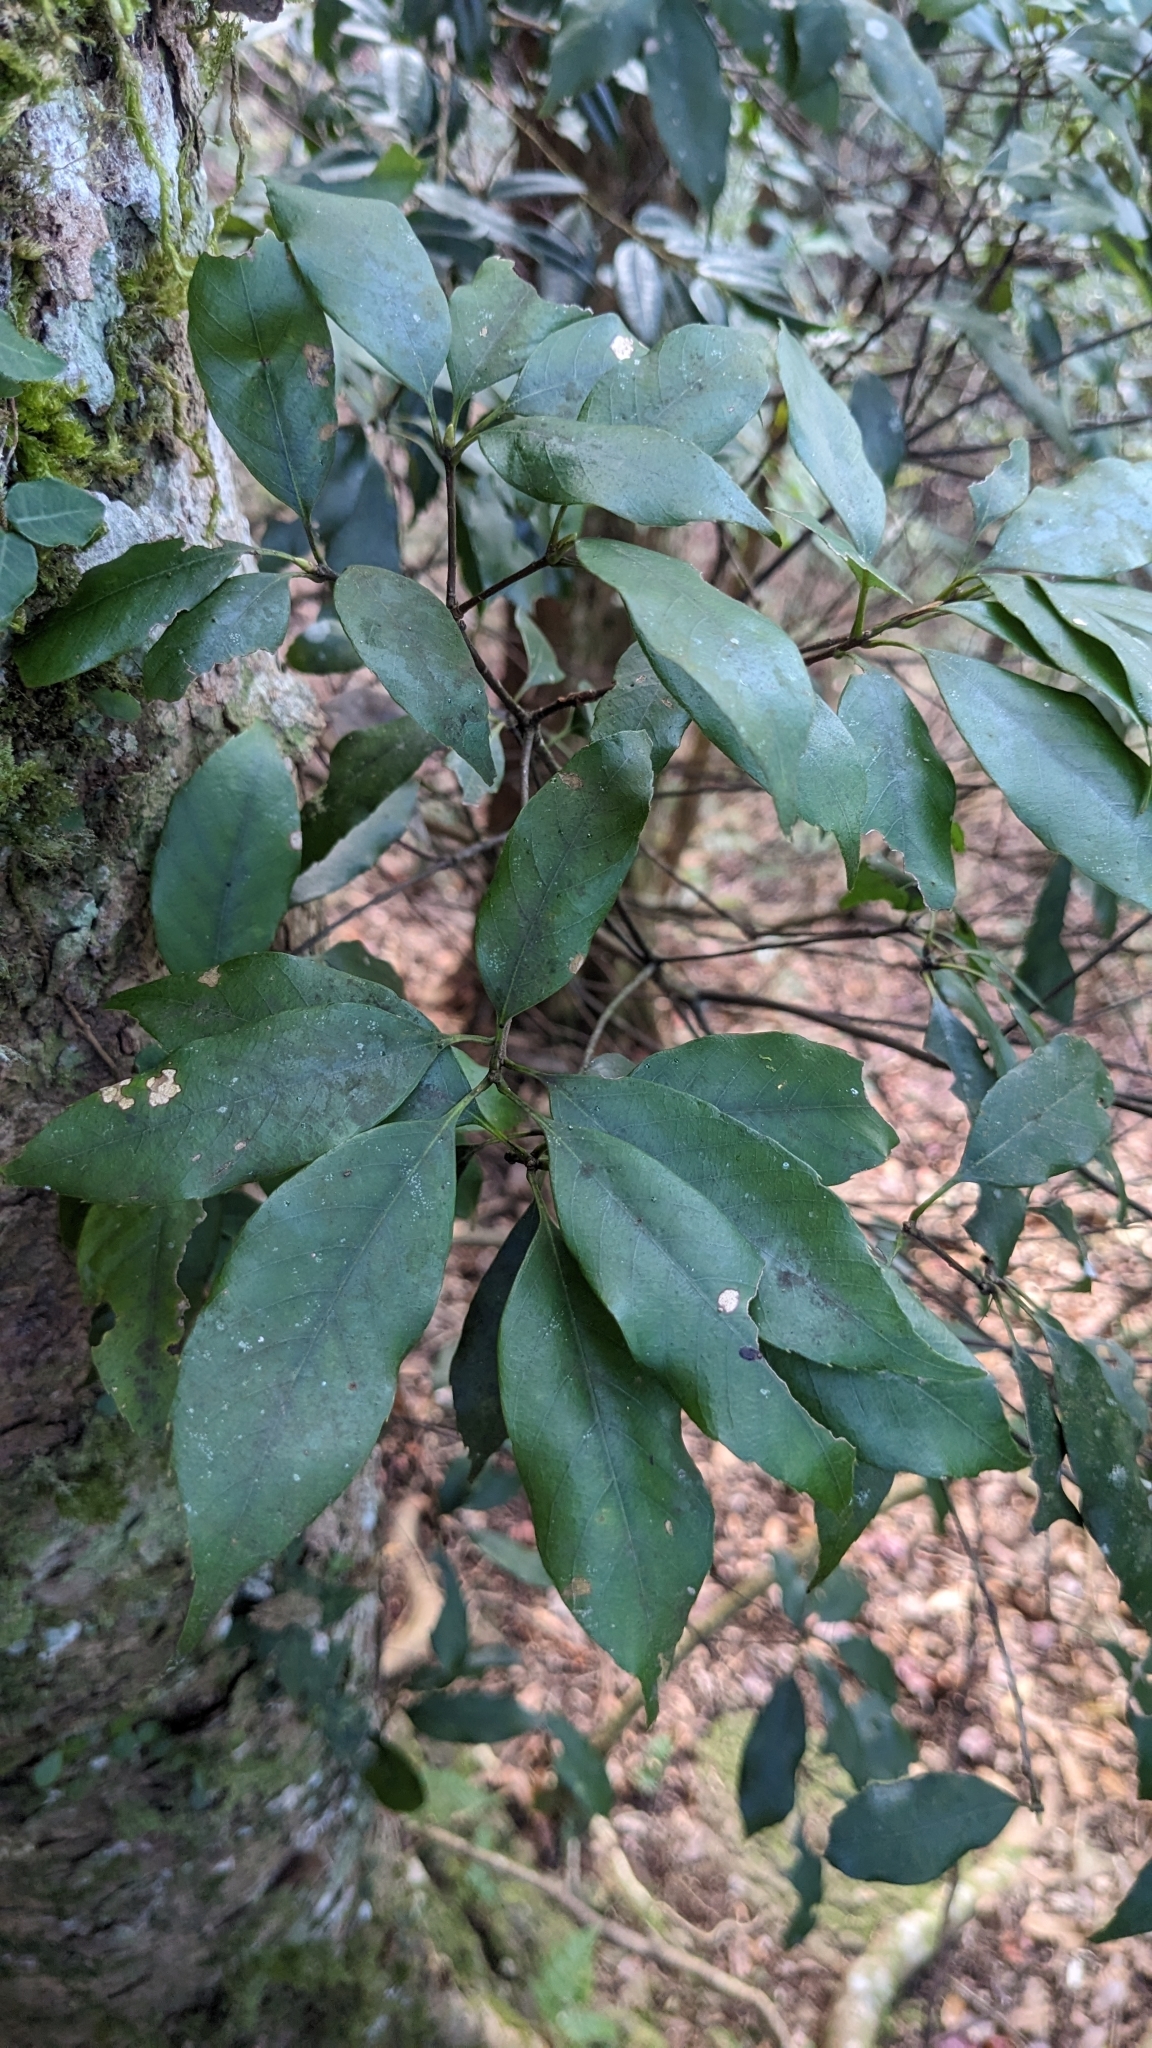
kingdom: Plantae
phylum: Tracheophyta
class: Magnoliopsida
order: Fagales
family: Fagaceae
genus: Quercus
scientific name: Quercus longinux
